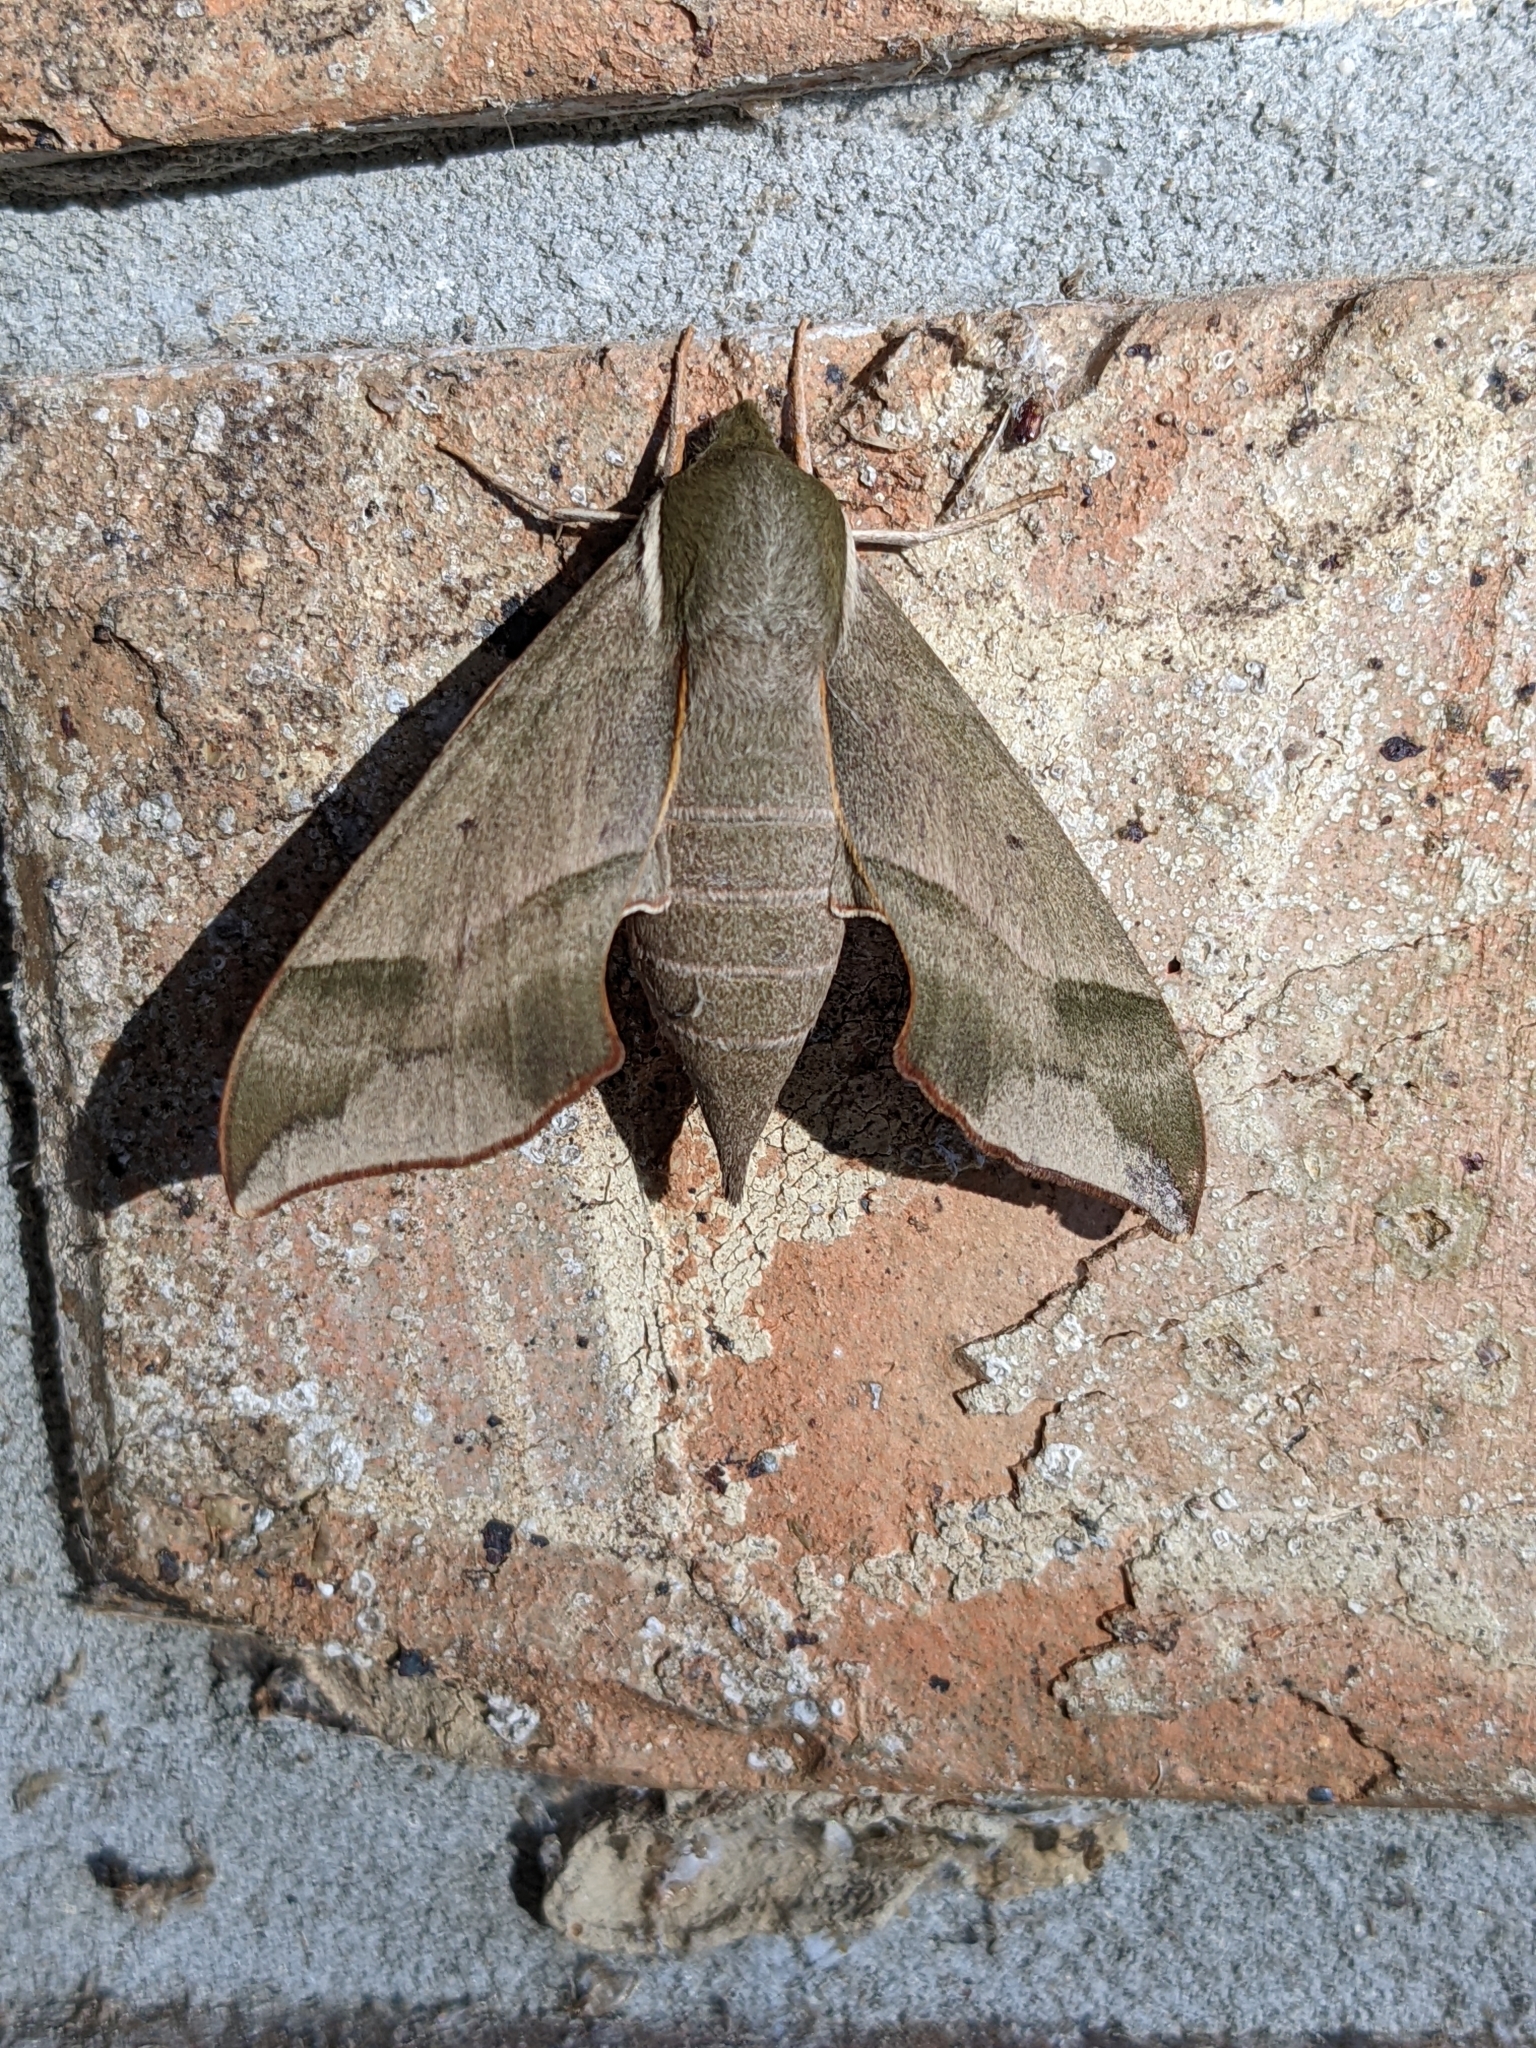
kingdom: Animalia
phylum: Arthropoda
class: Insecta
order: Lepidoptera
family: Sphingidae
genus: Darapsa
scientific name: Darapsa myron
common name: Hog sphinx
